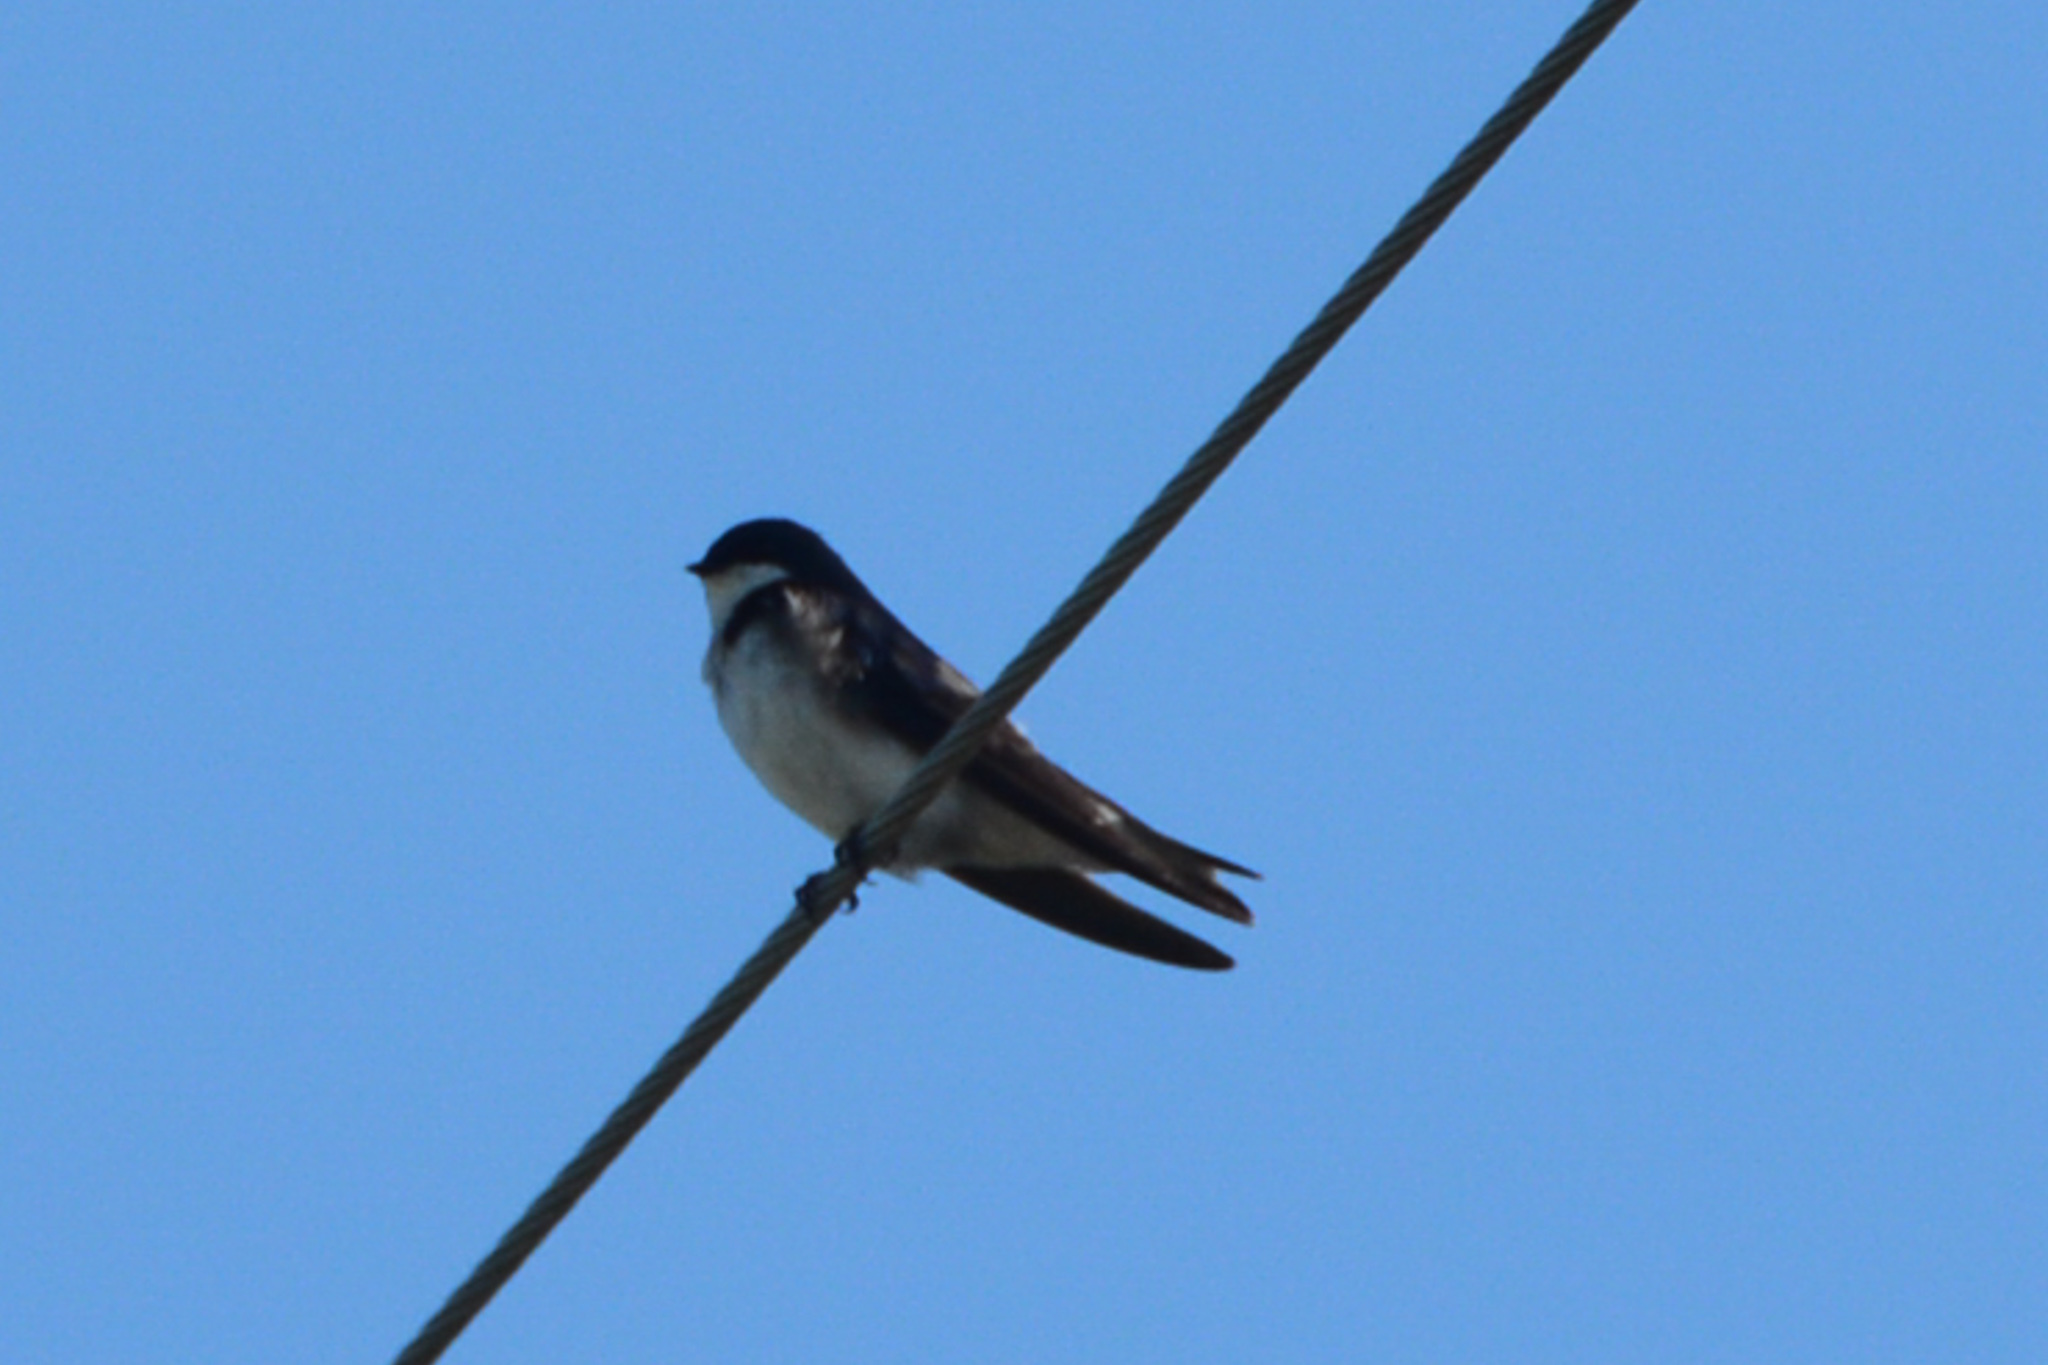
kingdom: Animalia
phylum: Chordata
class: Aves
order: Passeriformes
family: Hirundinidae
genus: Tachycineta
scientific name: Tachycineta bicolor
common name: Tree swallow
